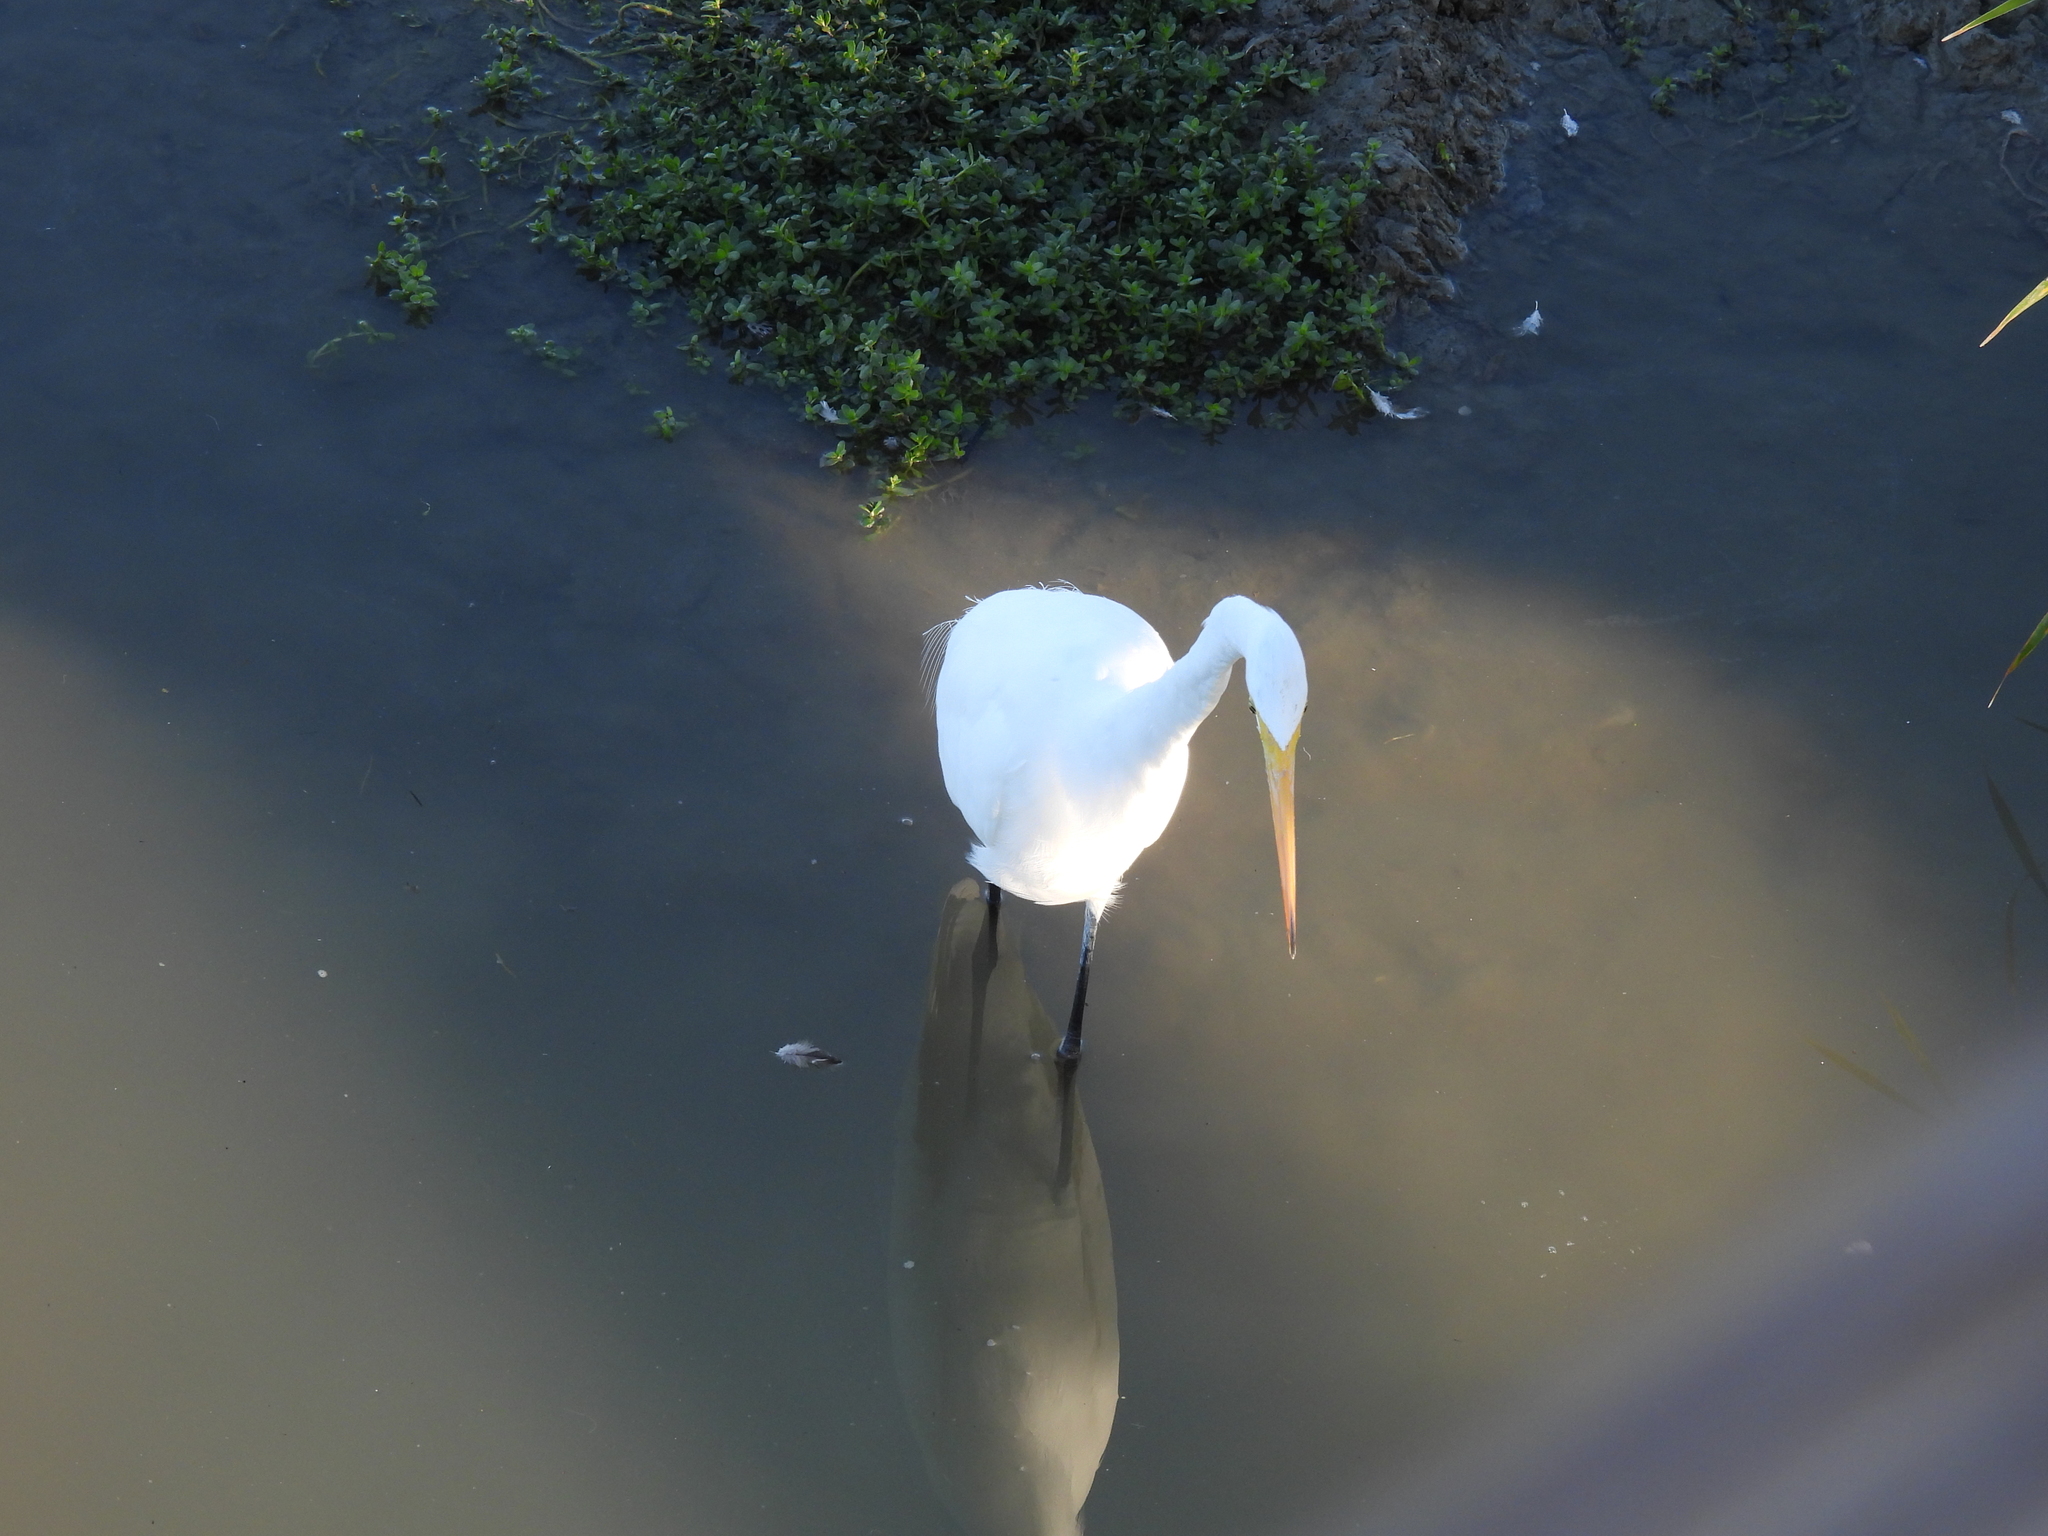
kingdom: Animalia
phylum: Chordata
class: Aves
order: Pelecaniformes
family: Ardeidae
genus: Ardea
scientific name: Ardea alba
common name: Great egret
